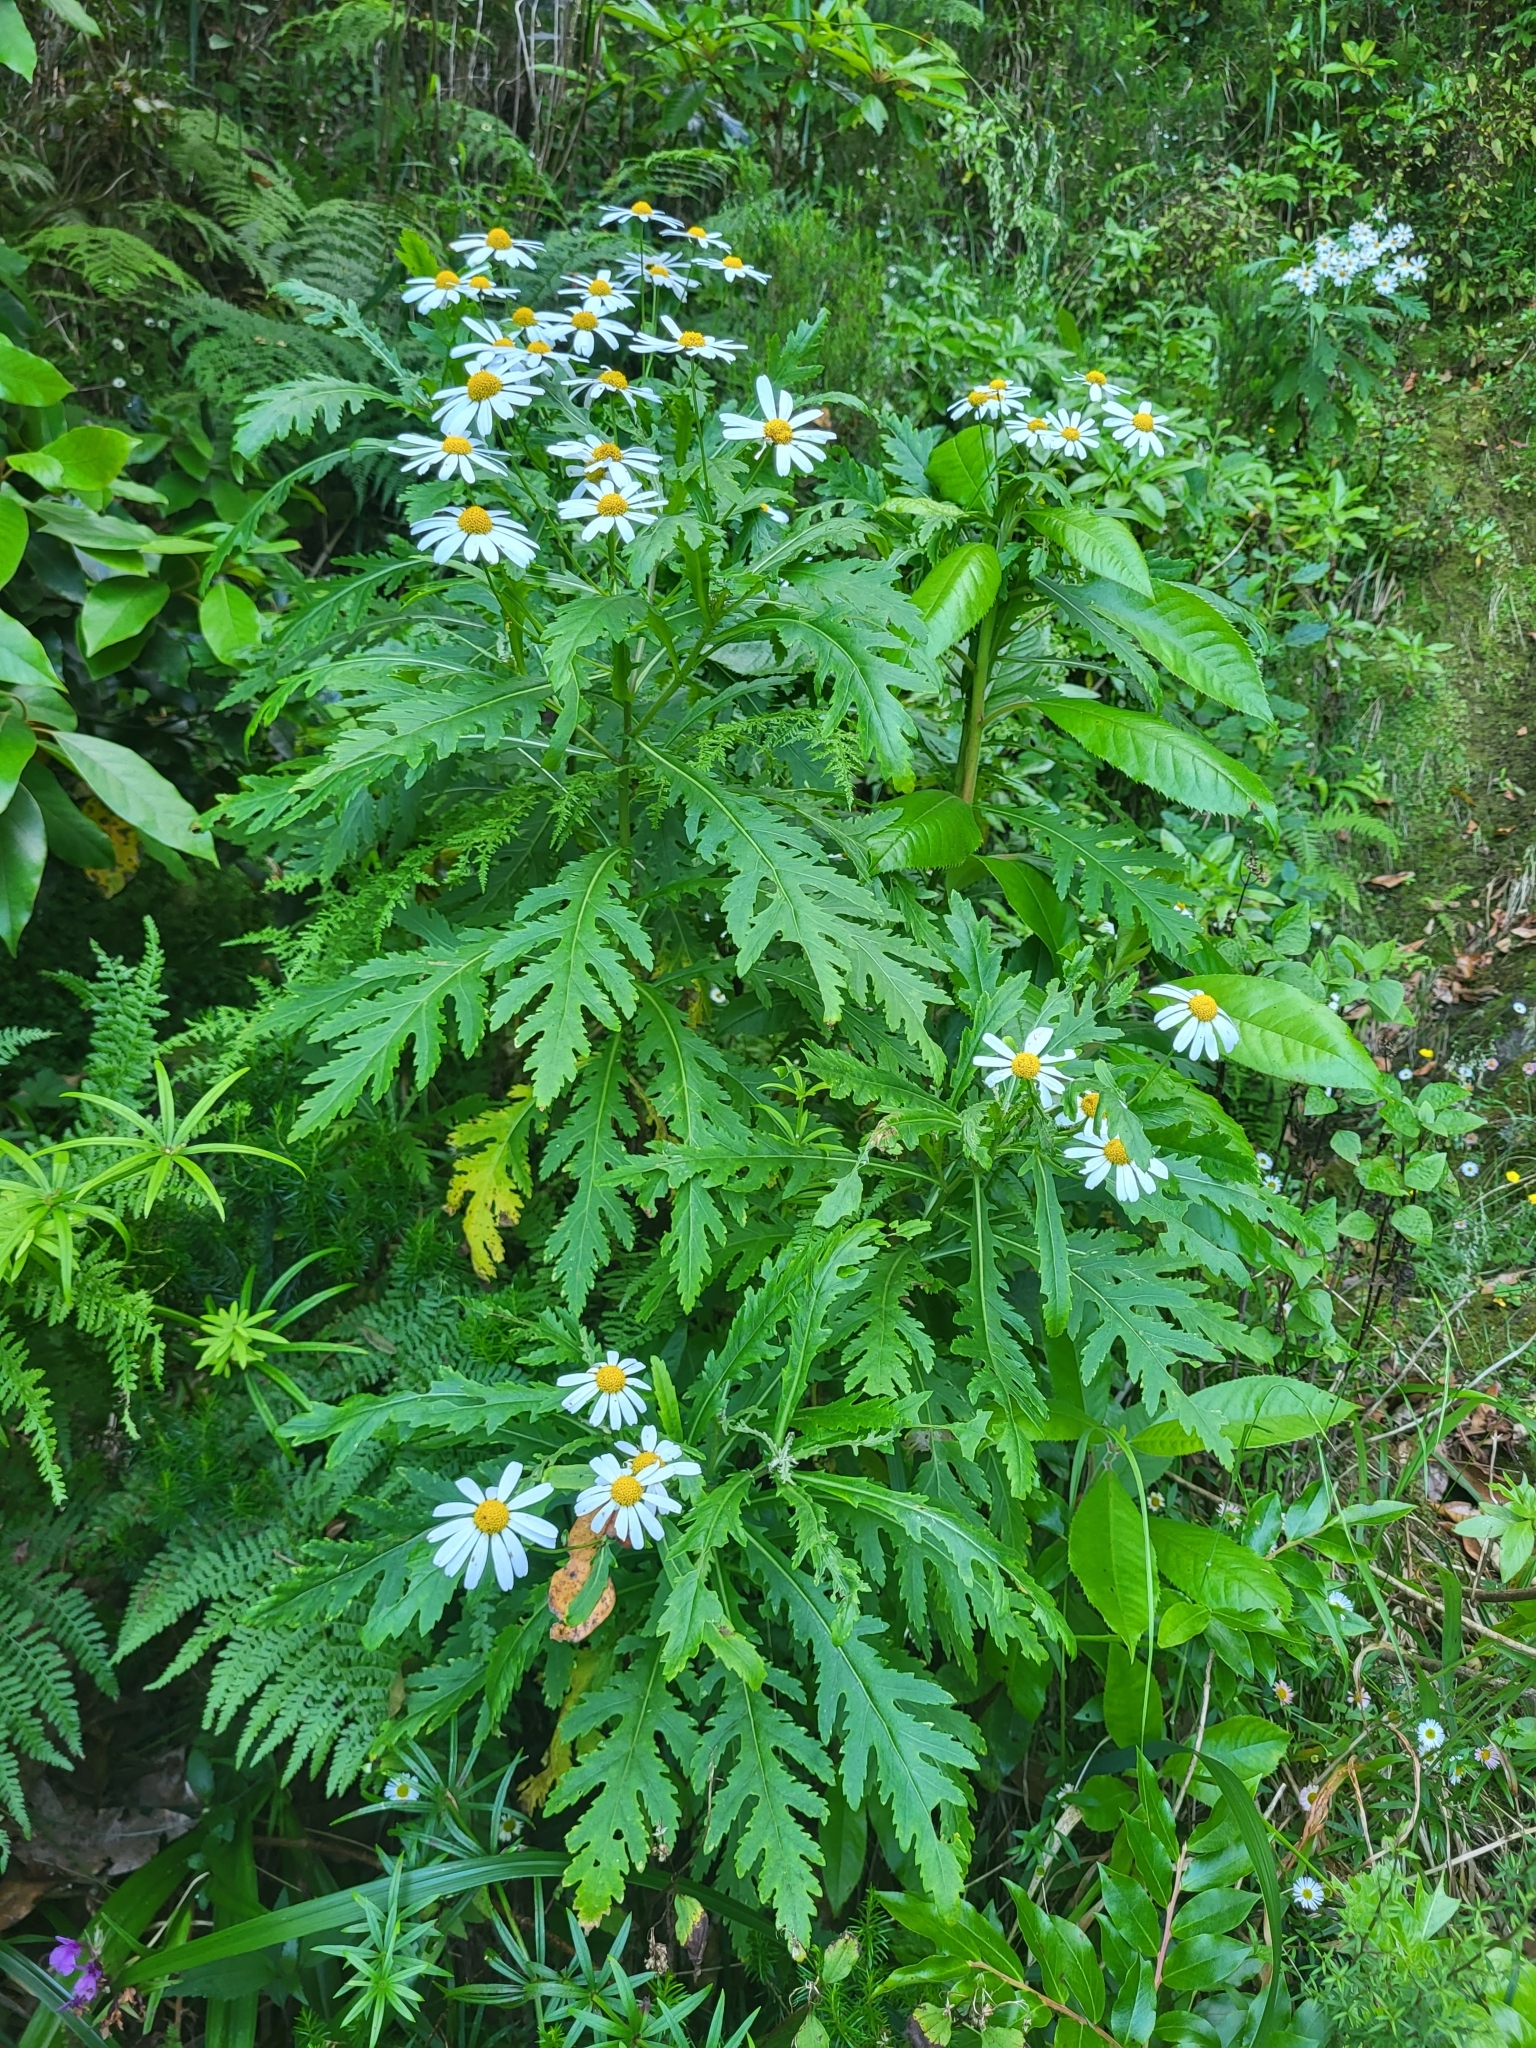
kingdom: Plantae
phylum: Tracheophyta
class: Magnoliopsida
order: Asterales
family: Asteraceae
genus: Argyranthemum
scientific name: Argyranthemum pinnatifidum
